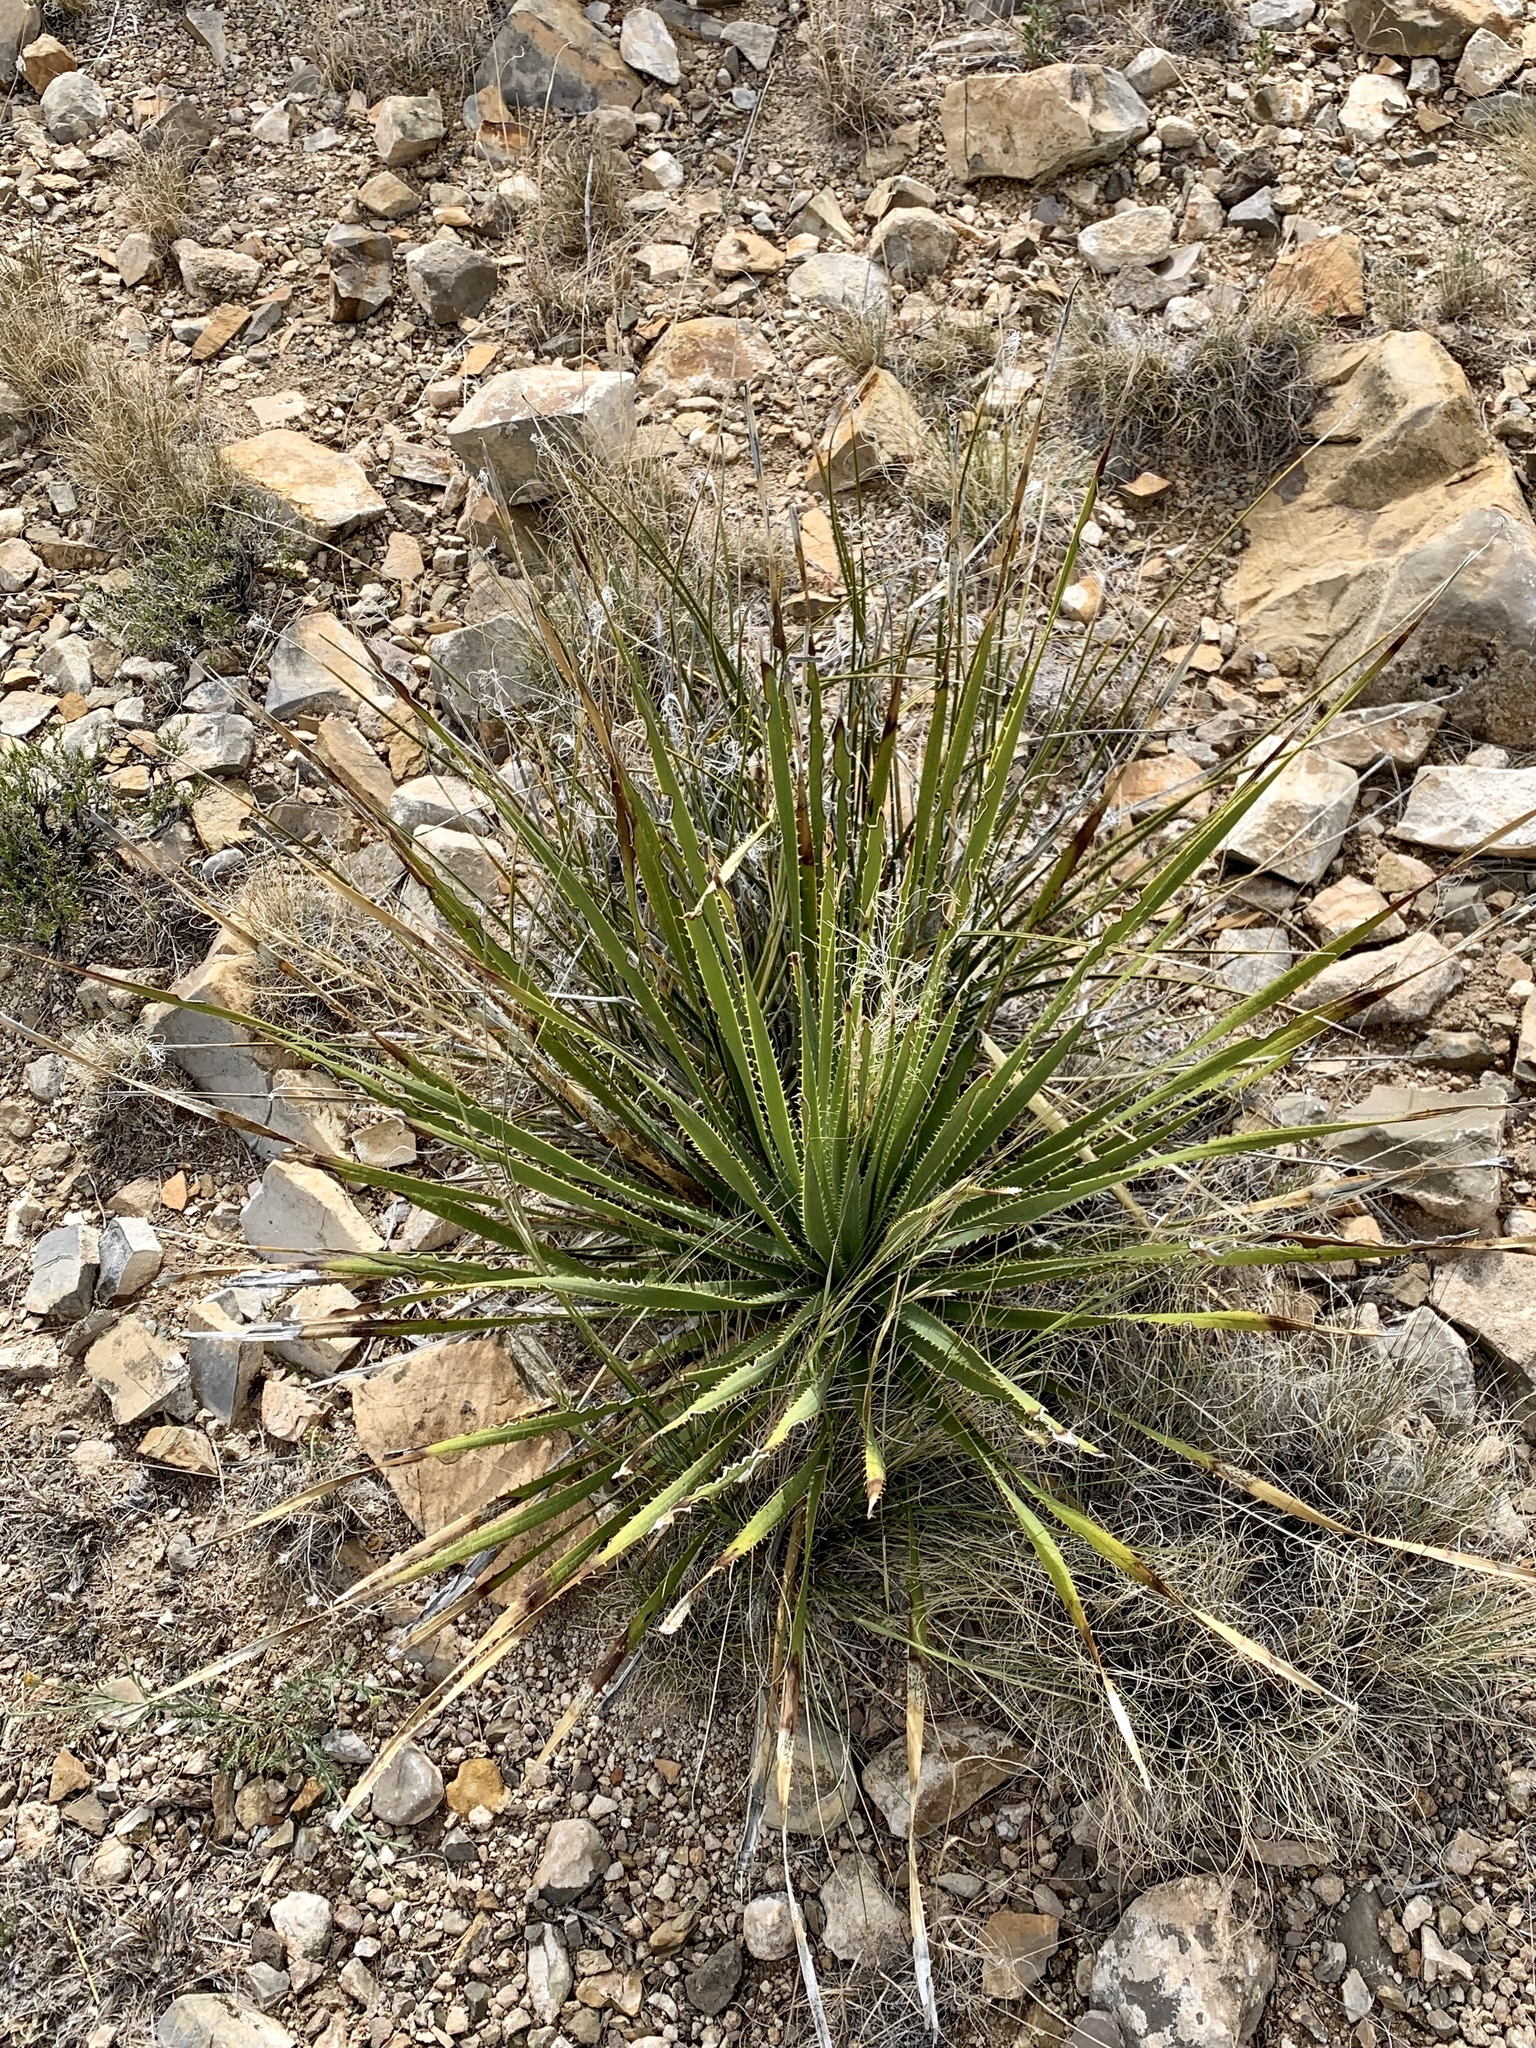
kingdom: Plantae
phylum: Tracheophyta
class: Liliopsida
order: Asparagales
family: Asparagaceae
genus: Dasylirion
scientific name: Dasylirion wheeleri
